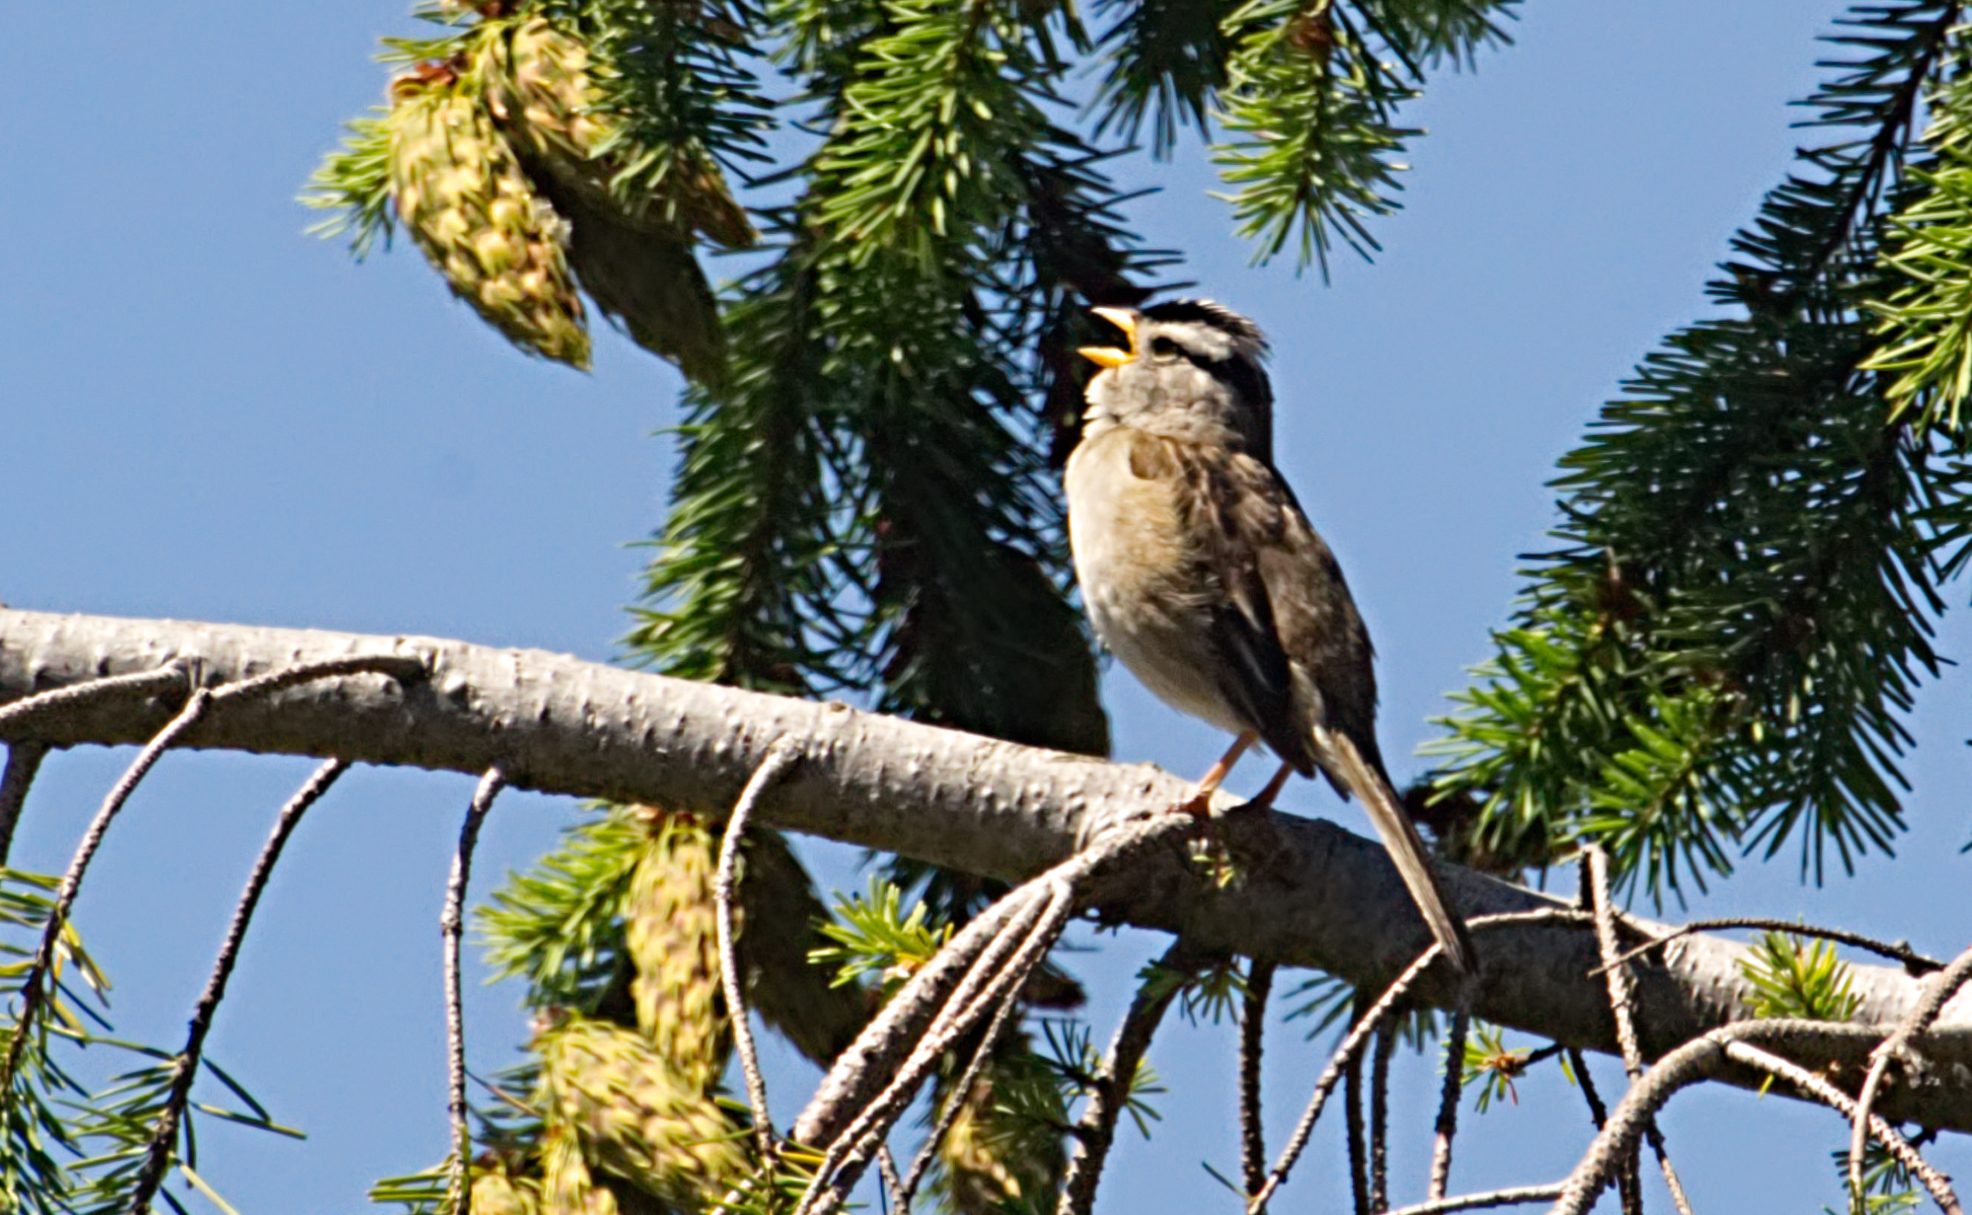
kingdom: Animalia
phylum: Chordata
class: Aves
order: Passeriformes
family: Passerellidae
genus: Zonotrichia
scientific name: Zonotrichia leucophrys
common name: White-crowned sparrow
